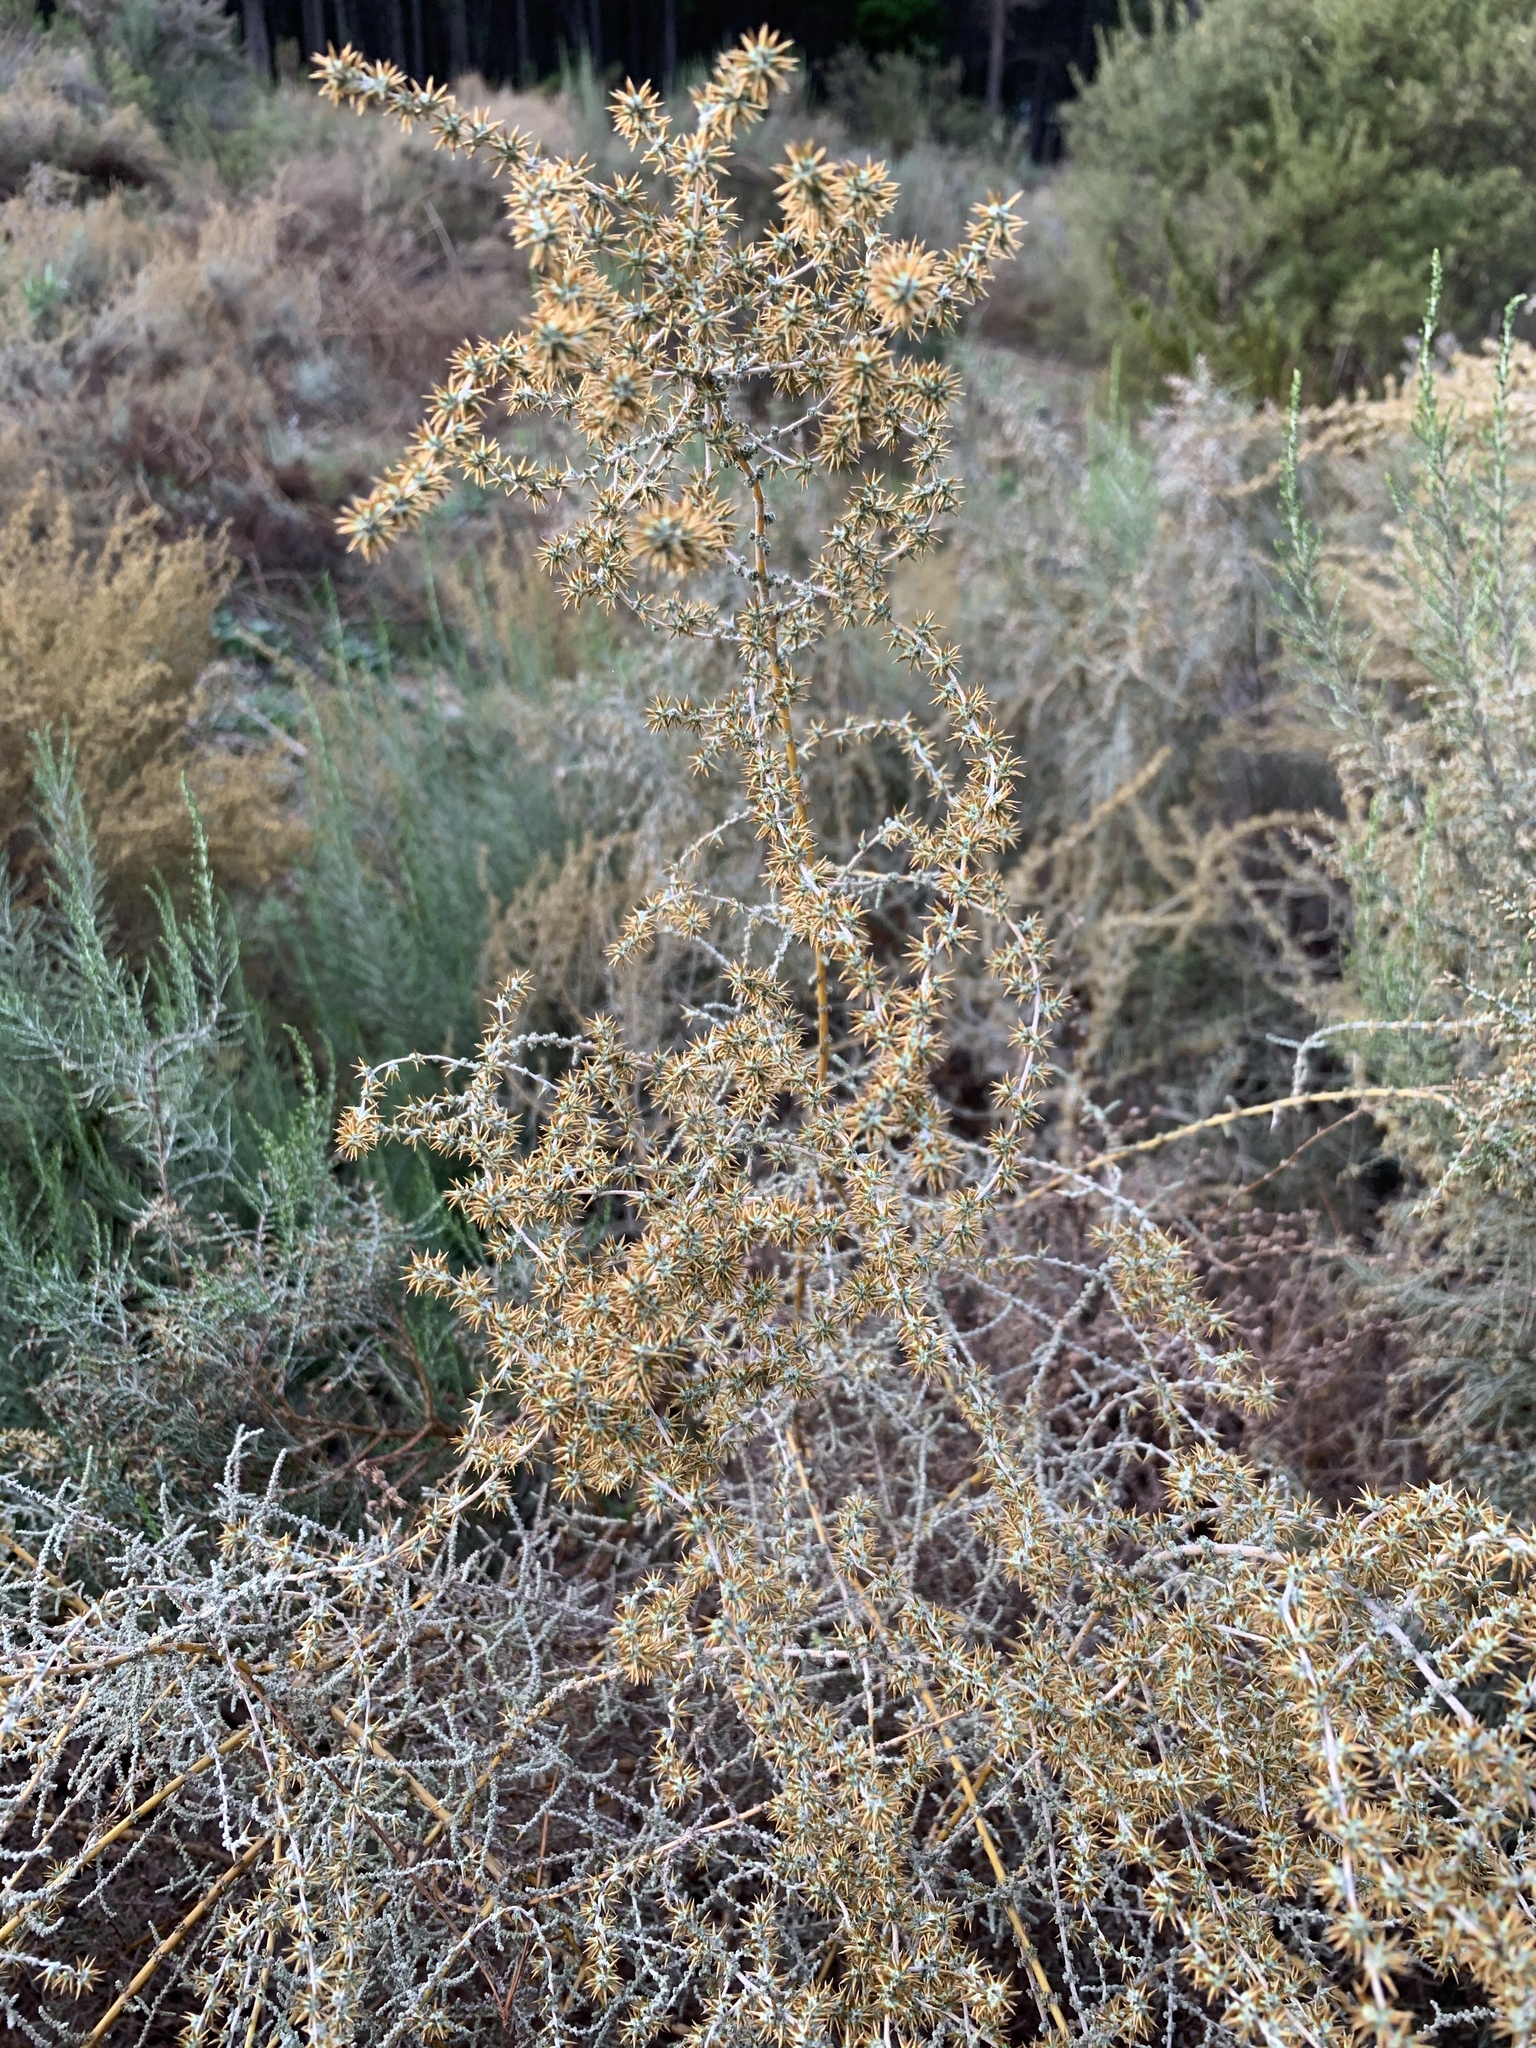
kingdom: Plantae
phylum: Tracheophyta
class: Magnoliopsida
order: Asterales
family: Asteraceae
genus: Seriphium
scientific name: Seriphium plumosum
